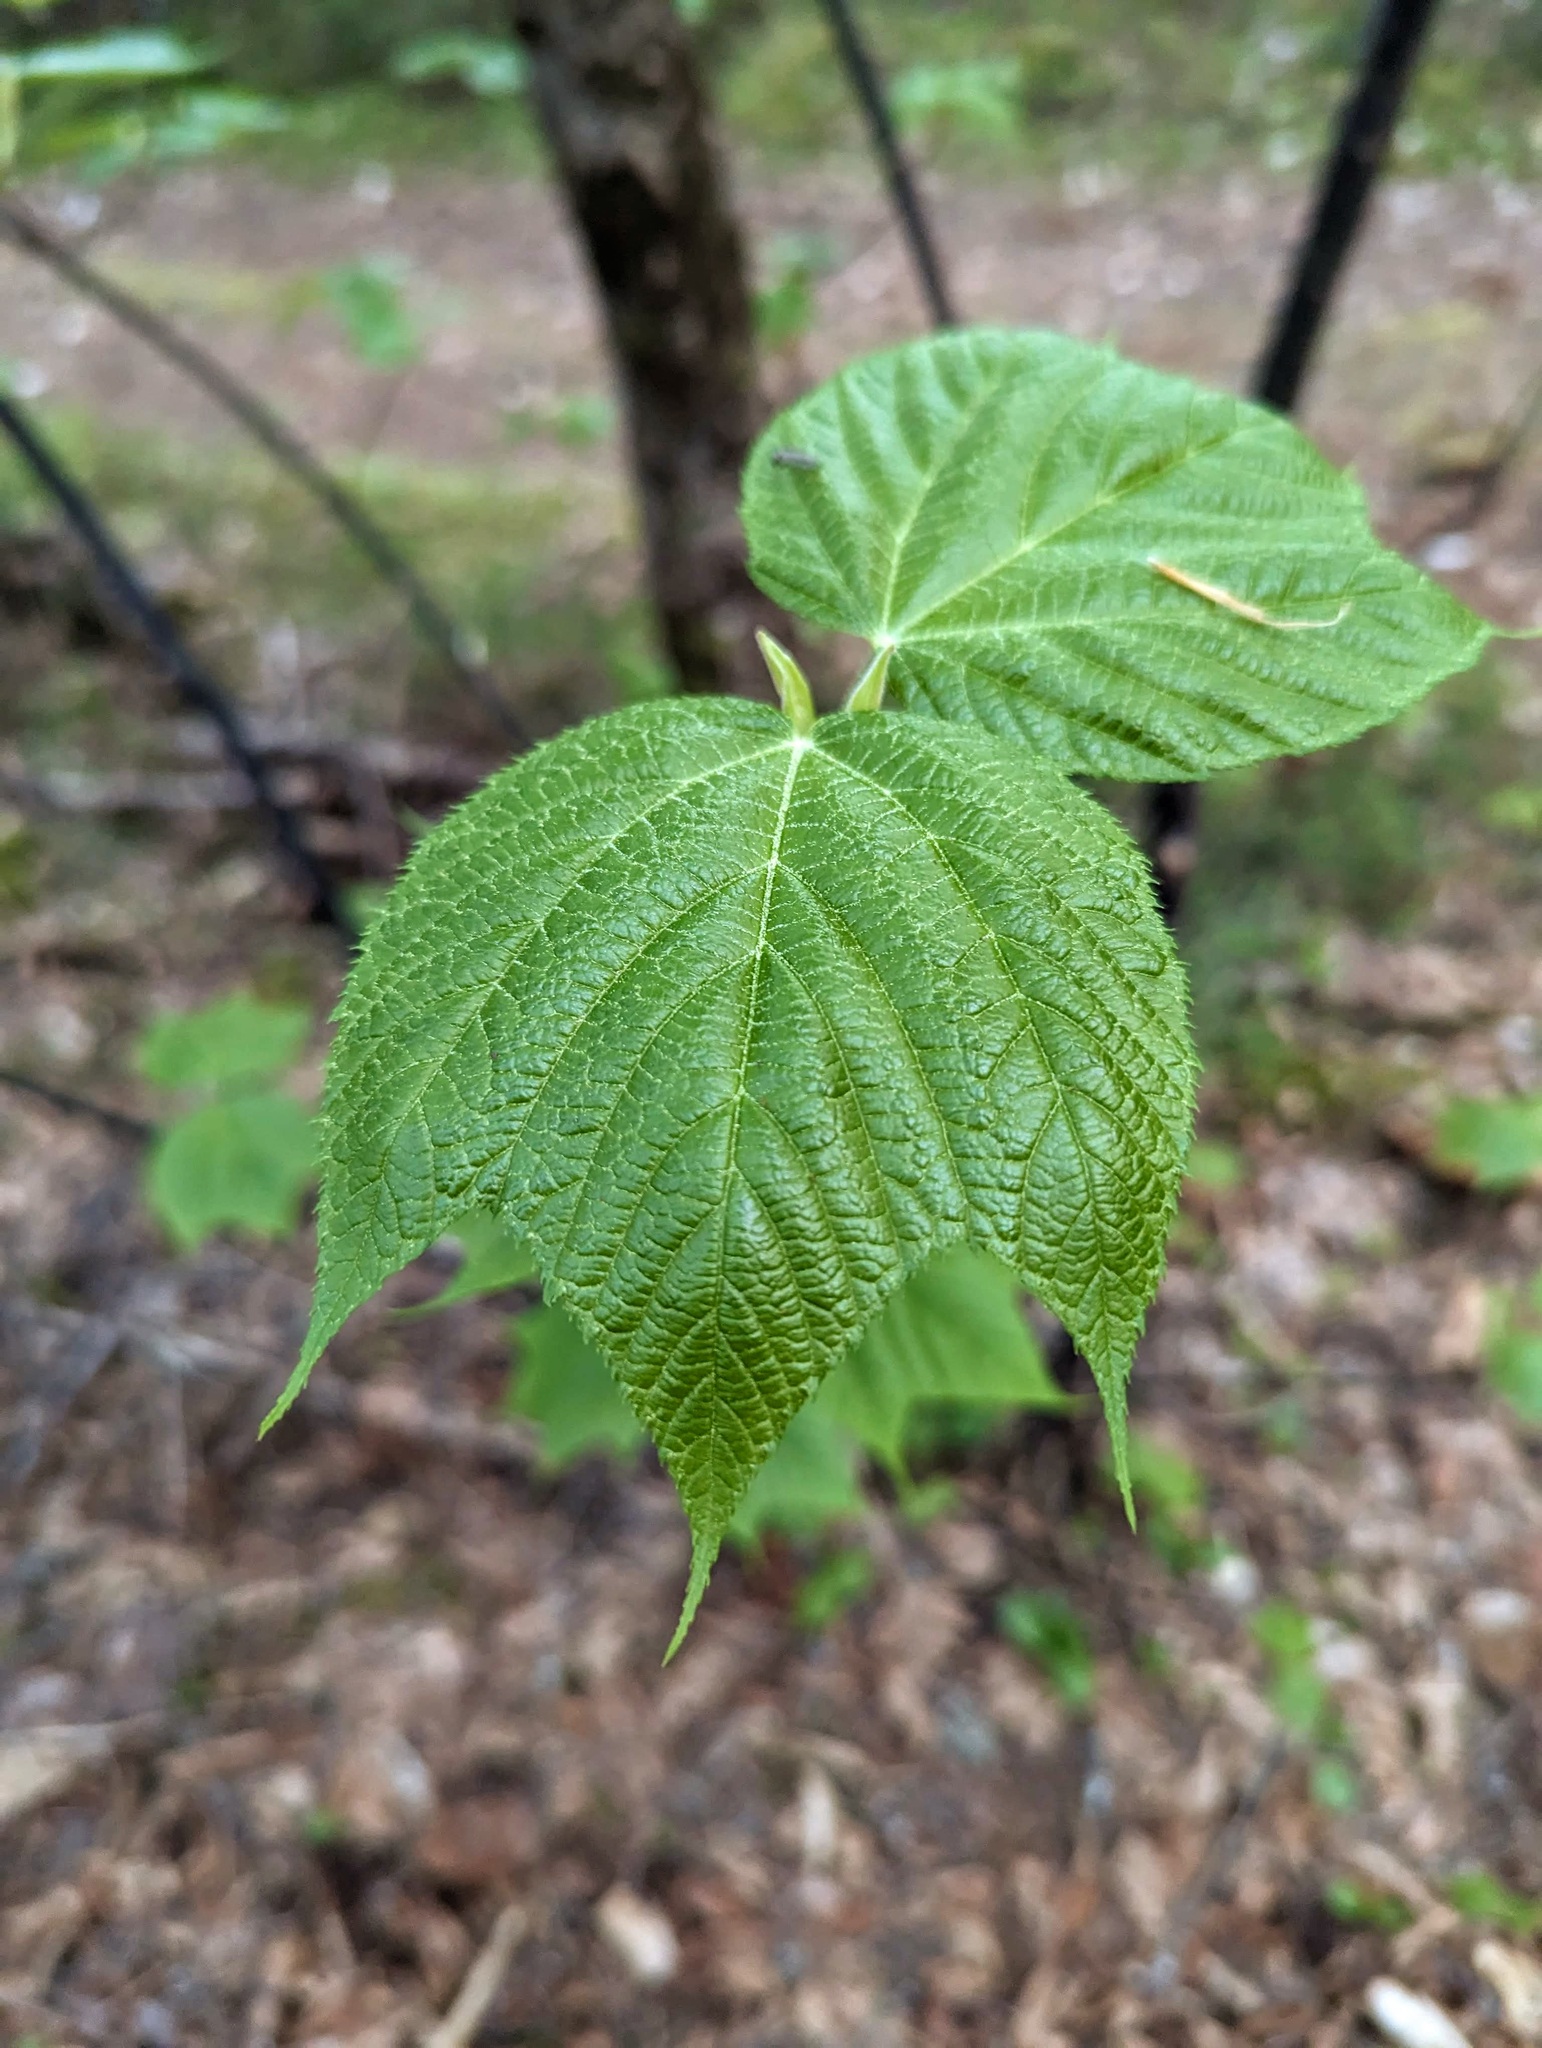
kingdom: Plantae
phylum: Tracheophyta
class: Magnoliopsida
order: Sapindales
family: Sapindaceae
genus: Acer
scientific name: Acer pensylvanicum
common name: Moosewood
